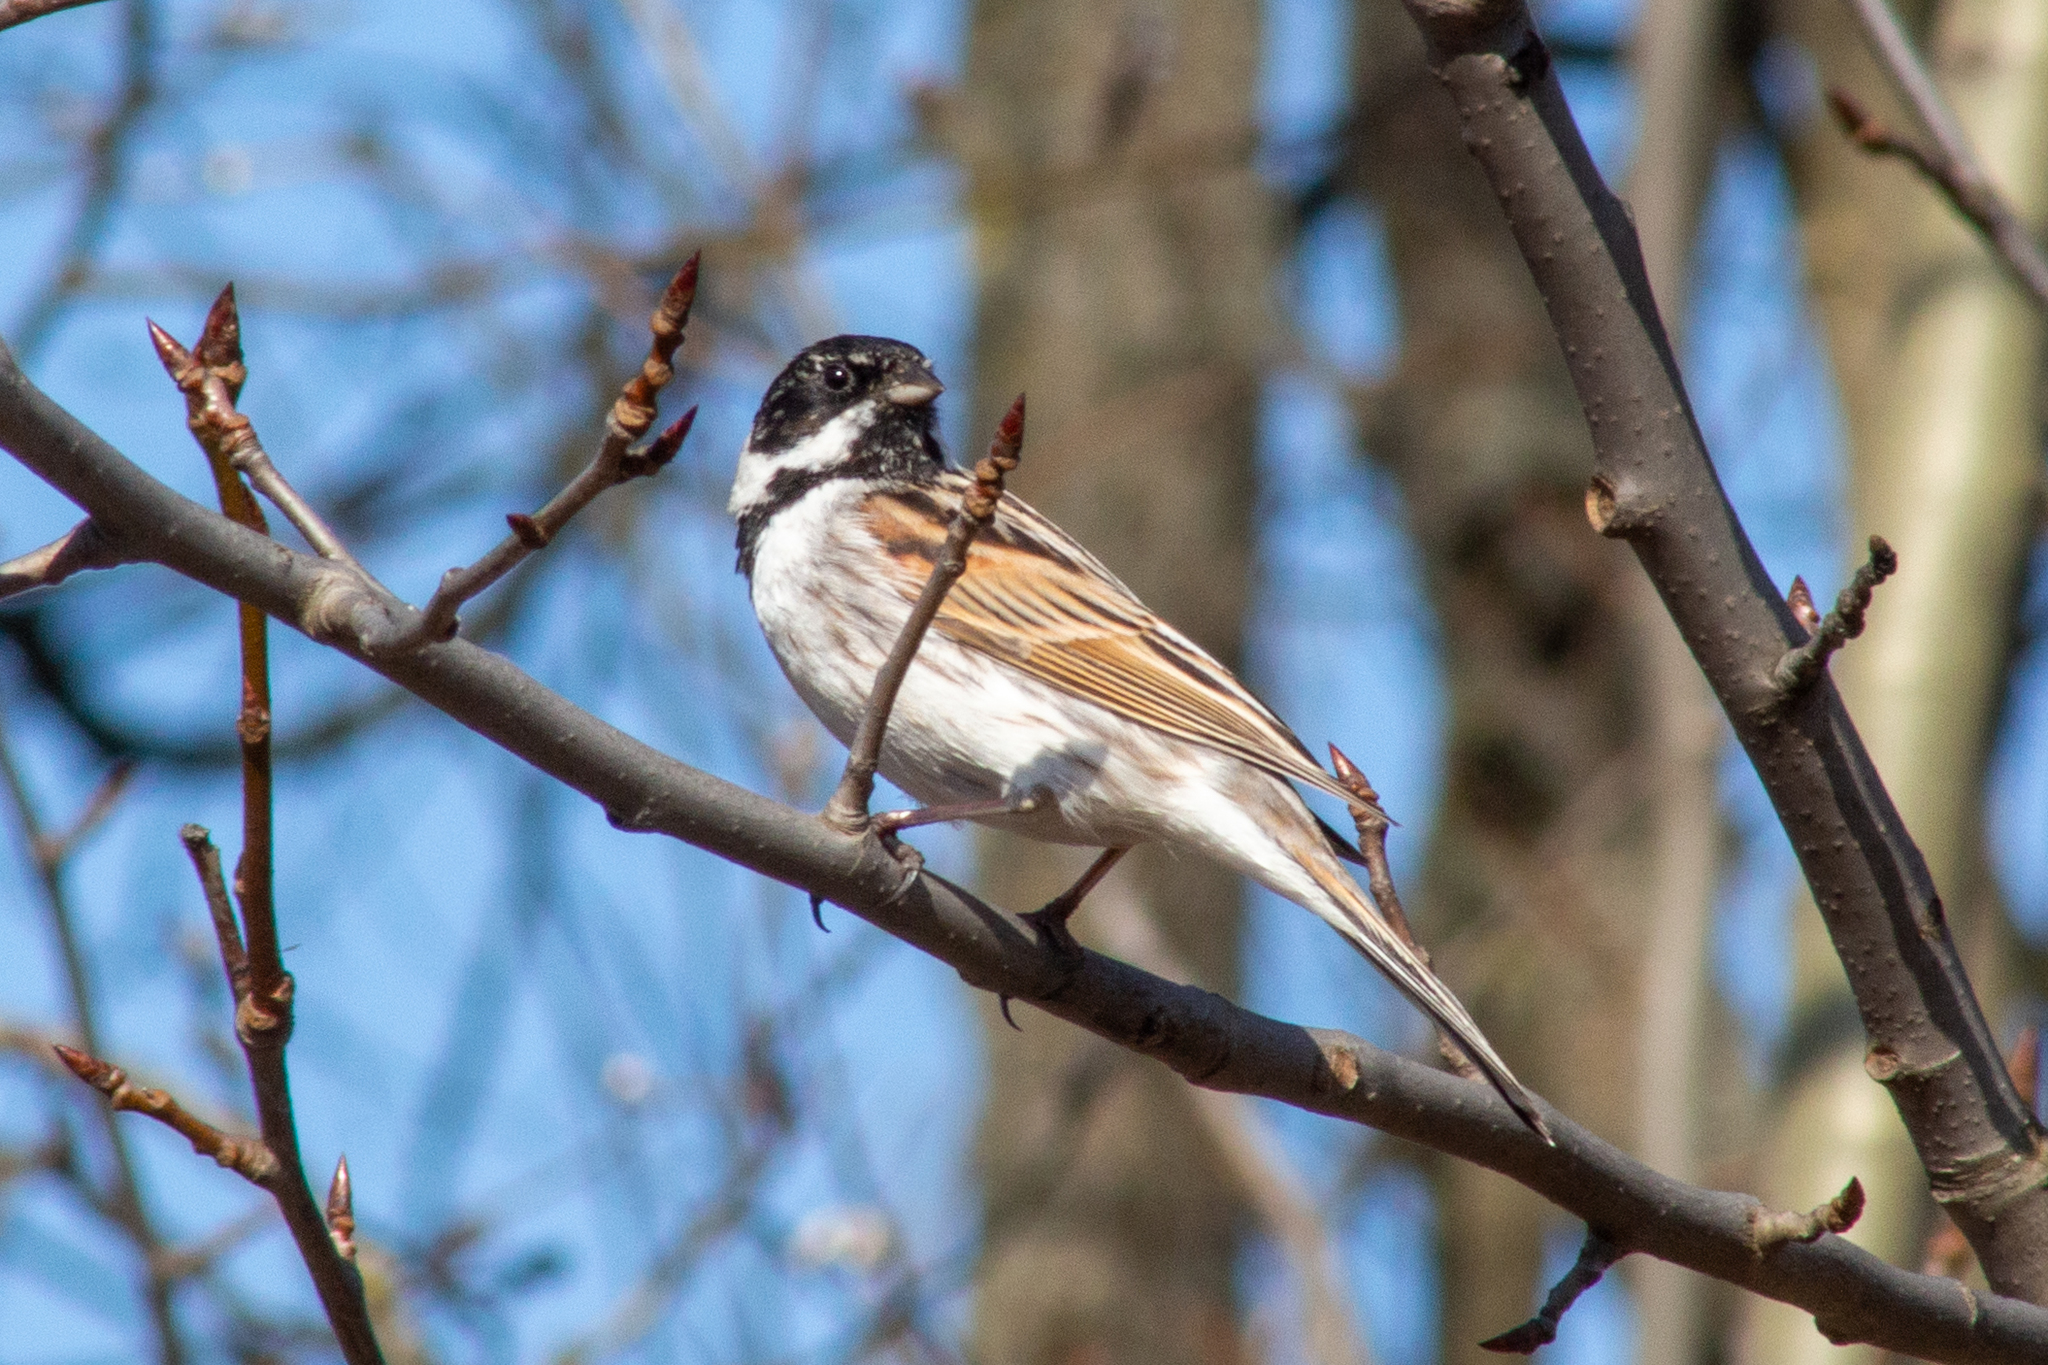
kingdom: Animalia
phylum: Chordata
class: Aves
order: Passeriformes
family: Emberizidae
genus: Emberiza
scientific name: Emberiza schoeniclus
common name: Reed bunting
